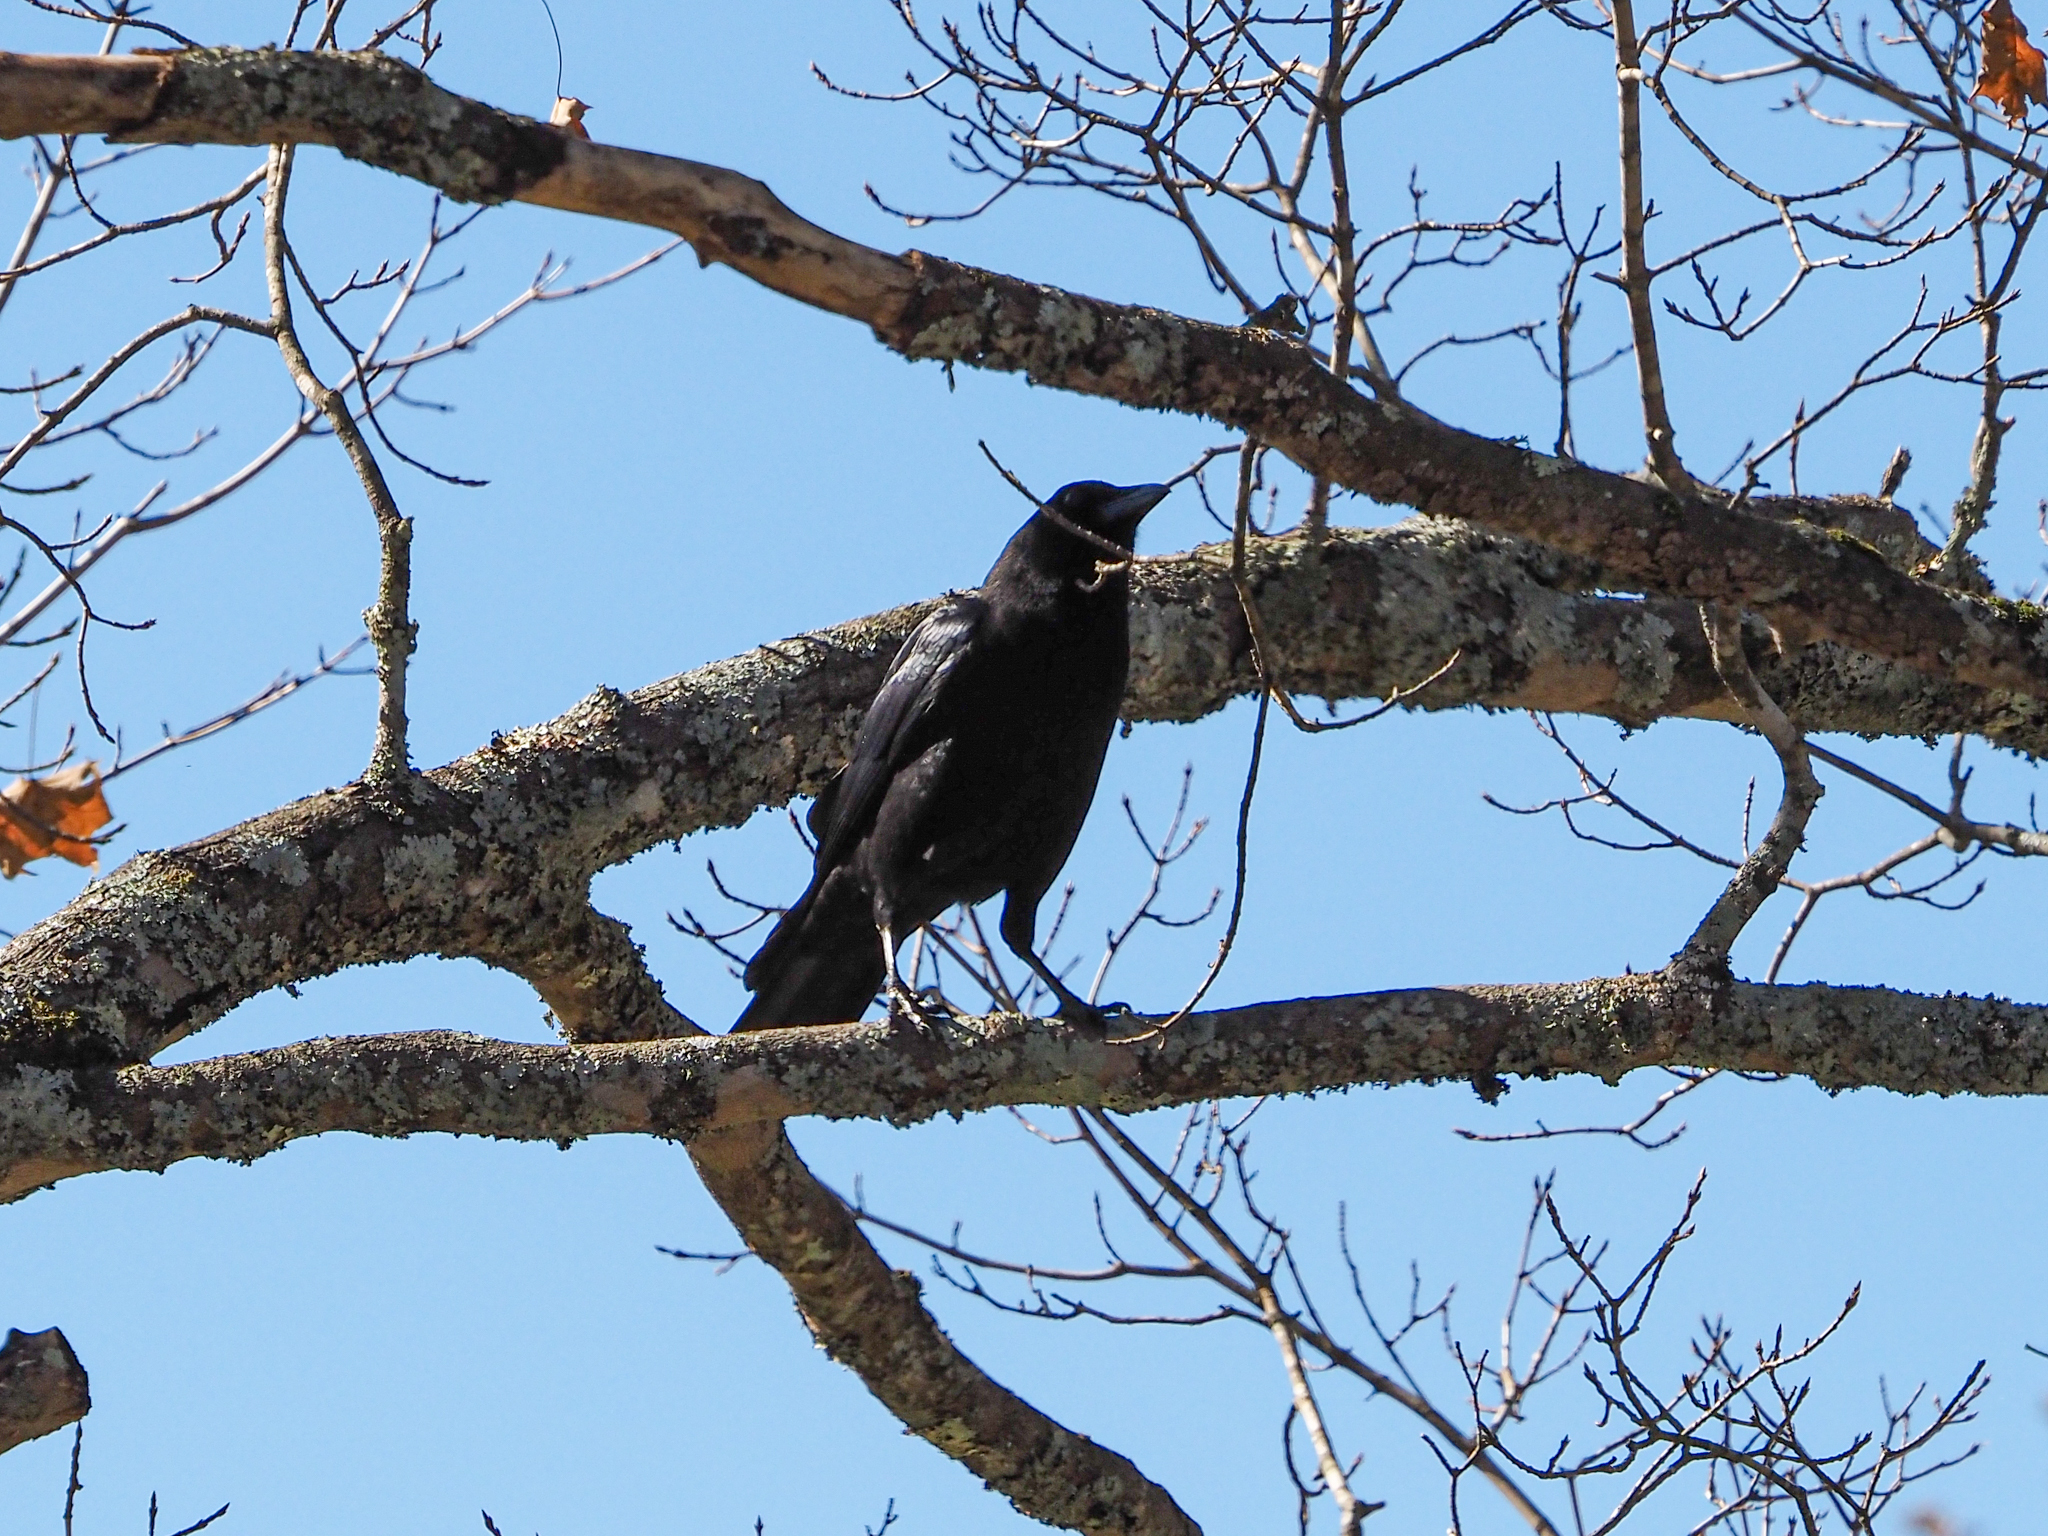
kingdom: Animalia
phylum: Chordata
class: Aves
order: Passeriformes
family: Corvidae
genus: Corvus
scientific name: Corvus brachyrhynchos
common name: American crow
